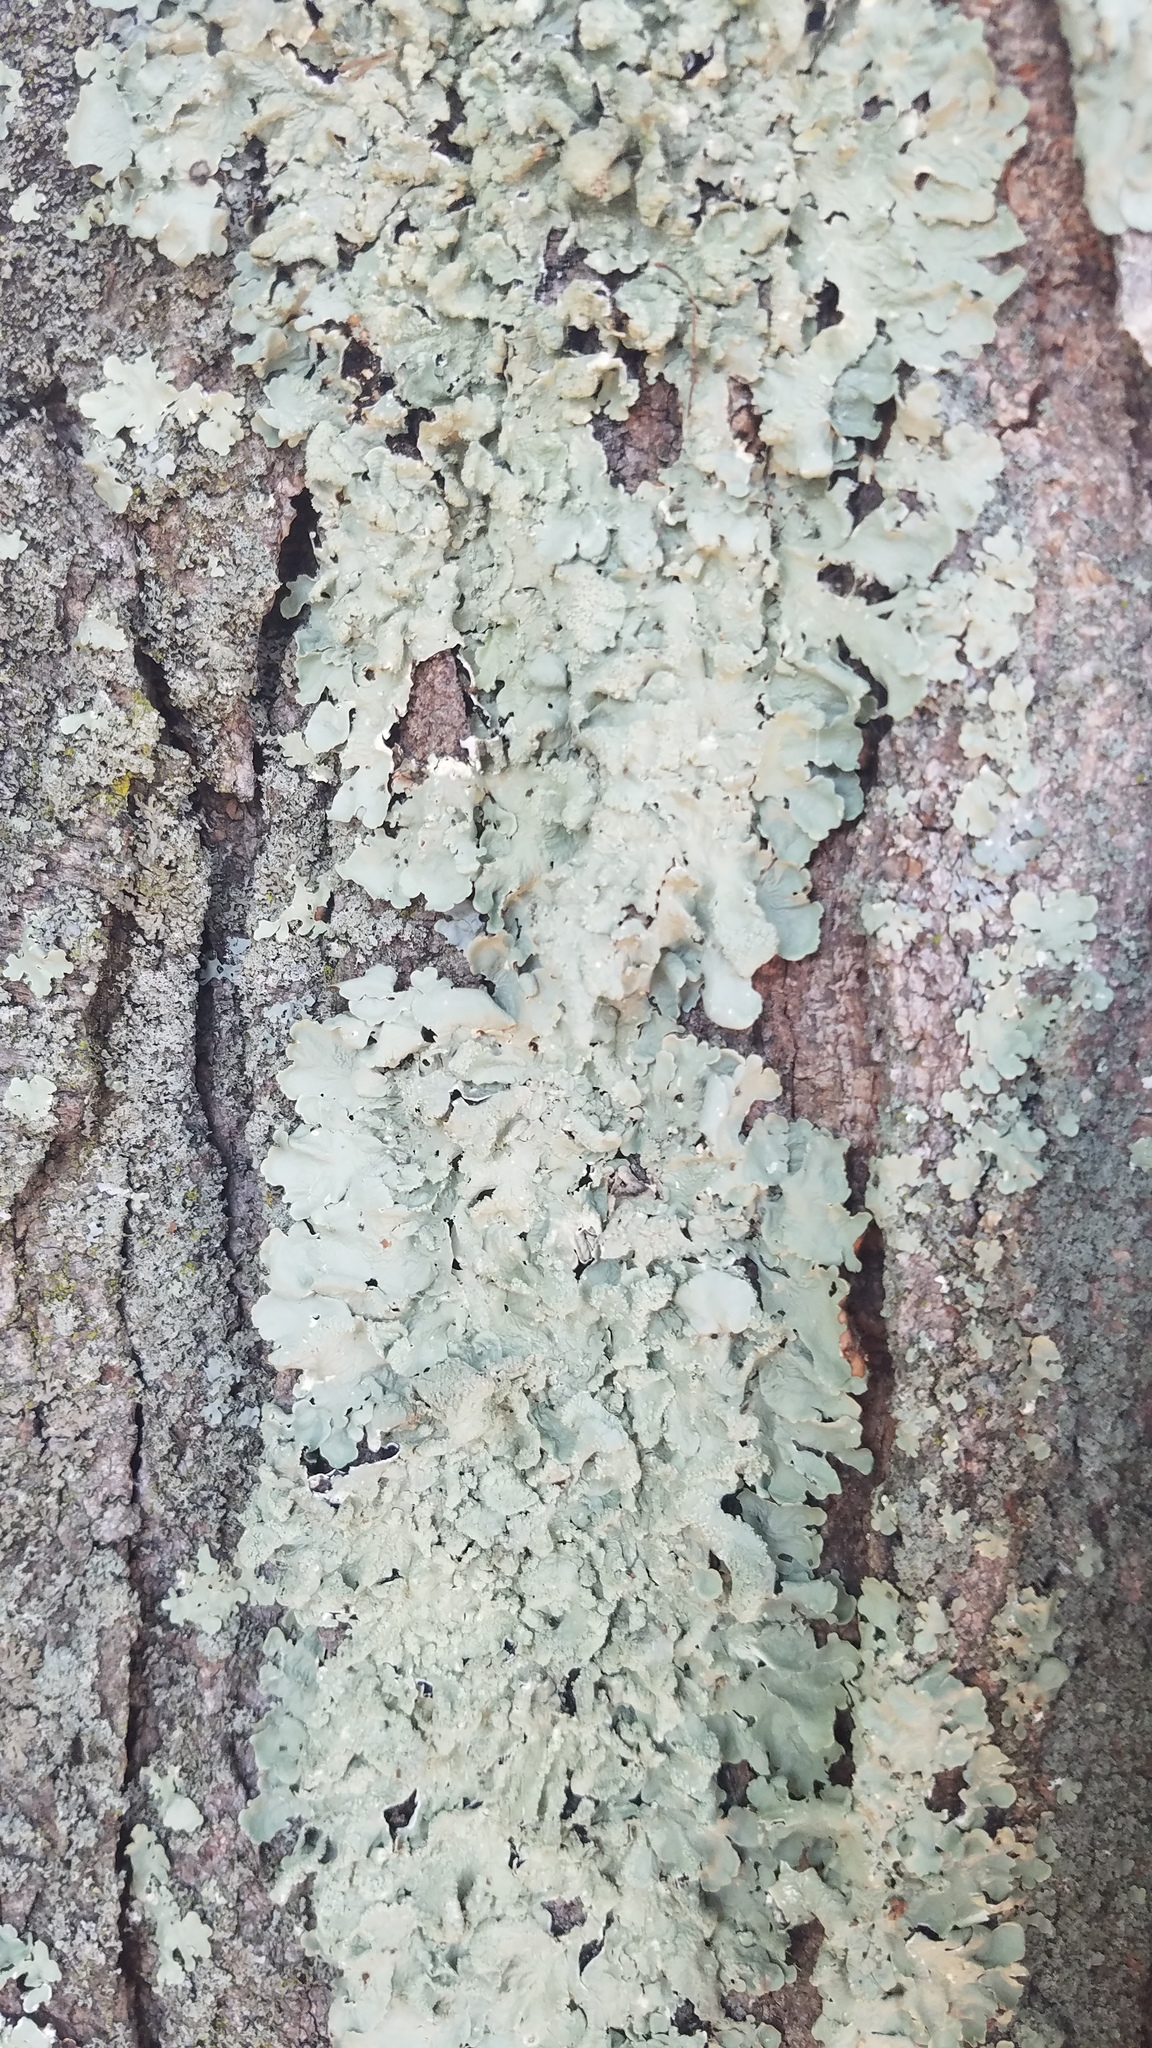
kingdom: Fungi
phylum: Ascomycota
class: Lecanoromycetes
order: Lecanorales
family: Parmeliaceae
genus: Flavoparmelia
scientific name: Flavoparmelia caperata
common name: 40-mile per hour lichen
